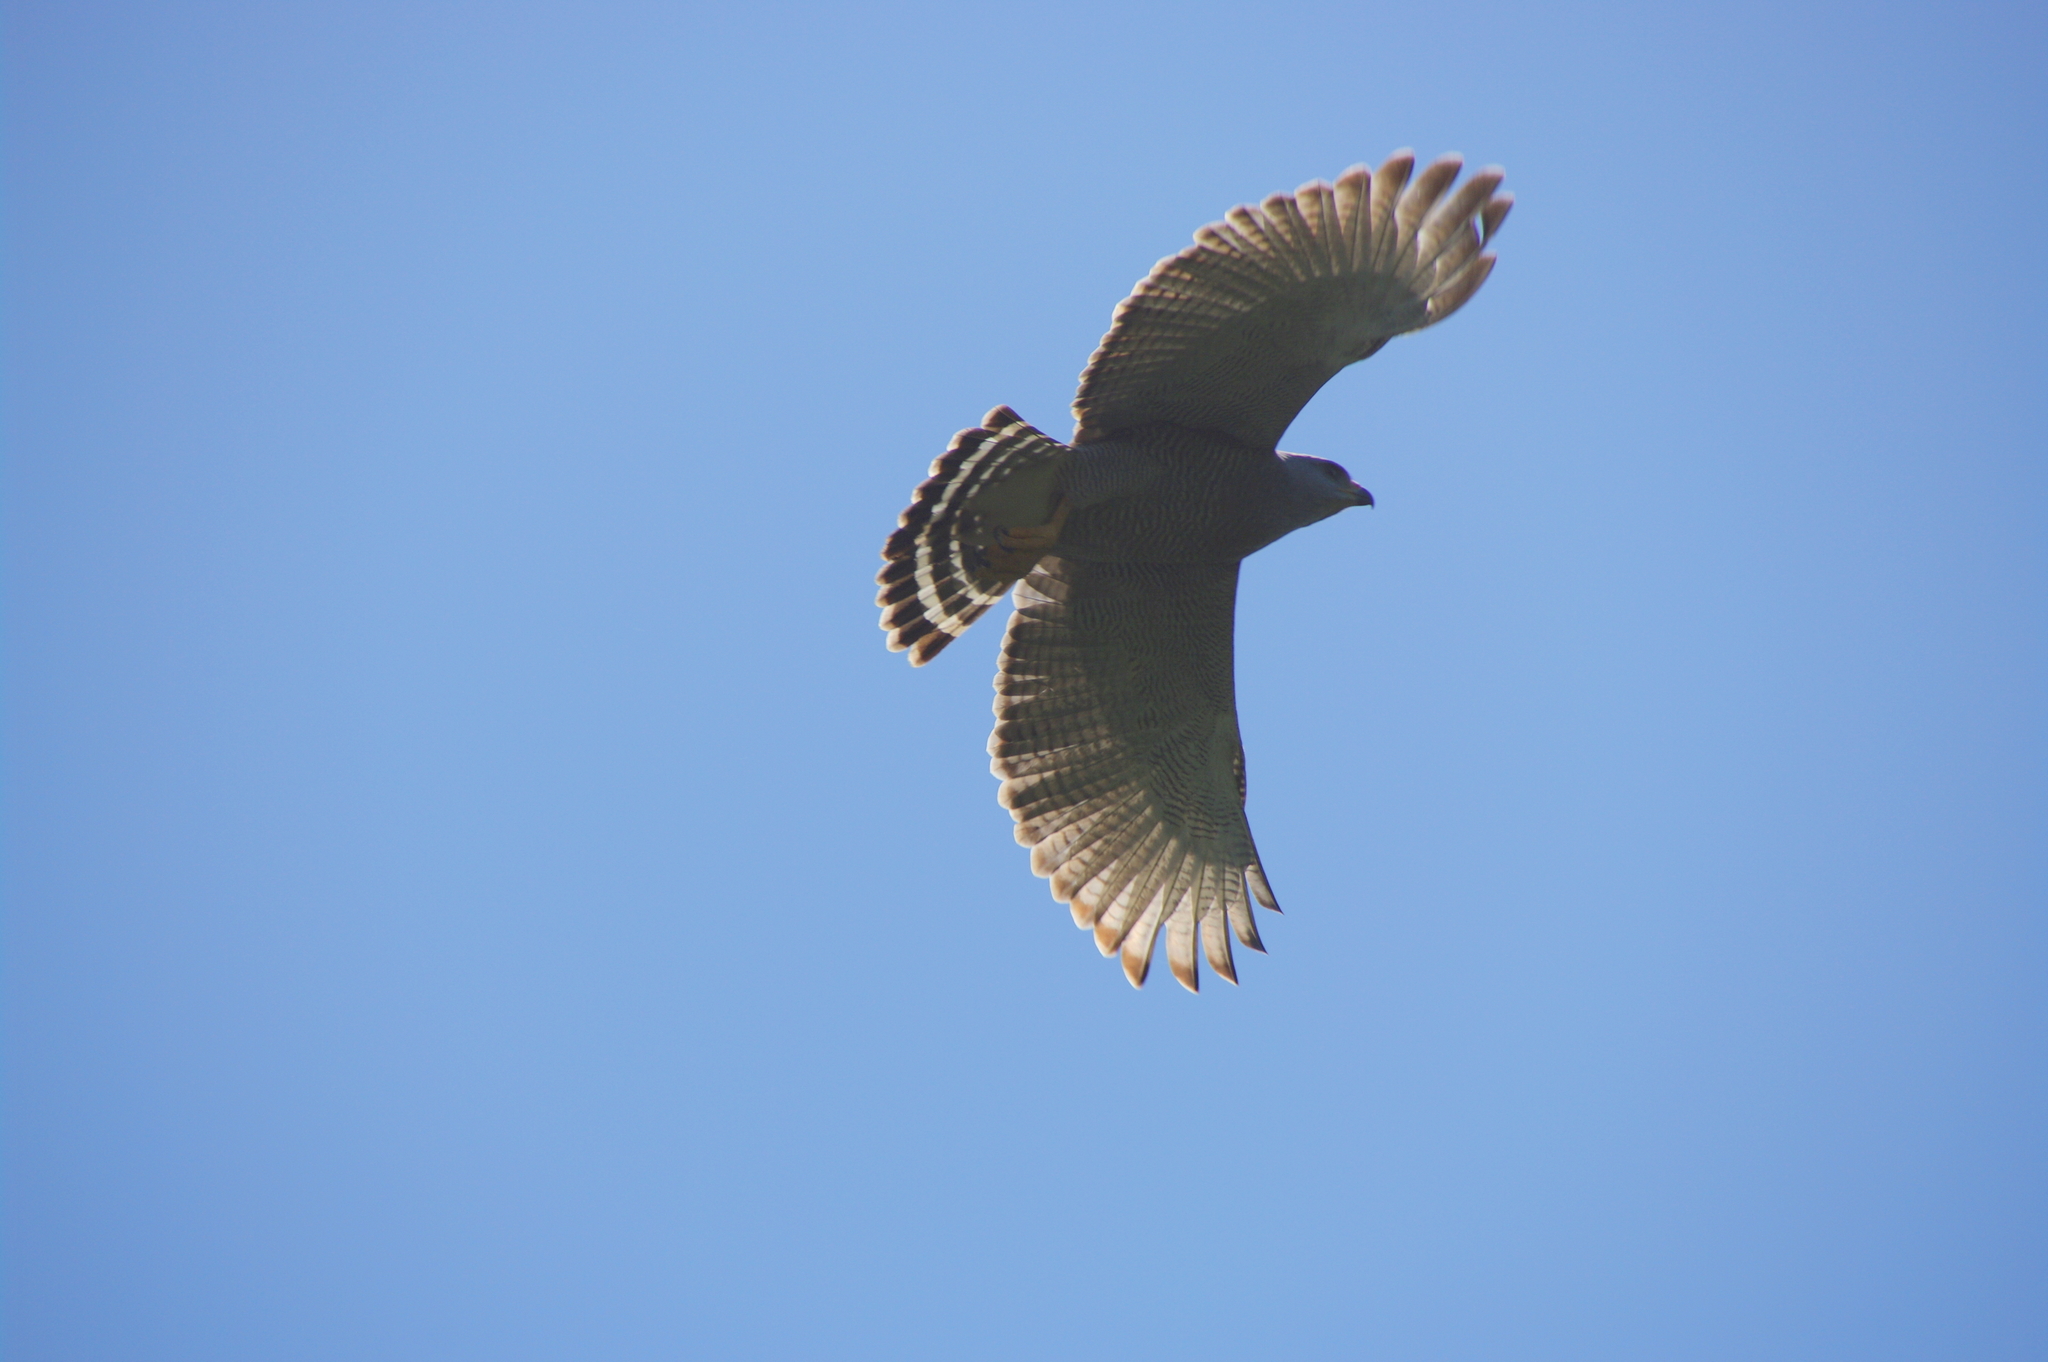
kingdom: Animalia
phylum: Chordata
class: Aves
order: Accipitriformes
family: Accipitridae
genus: Buteo
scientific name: Buteo nitidus
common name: Grey-lined hawk
